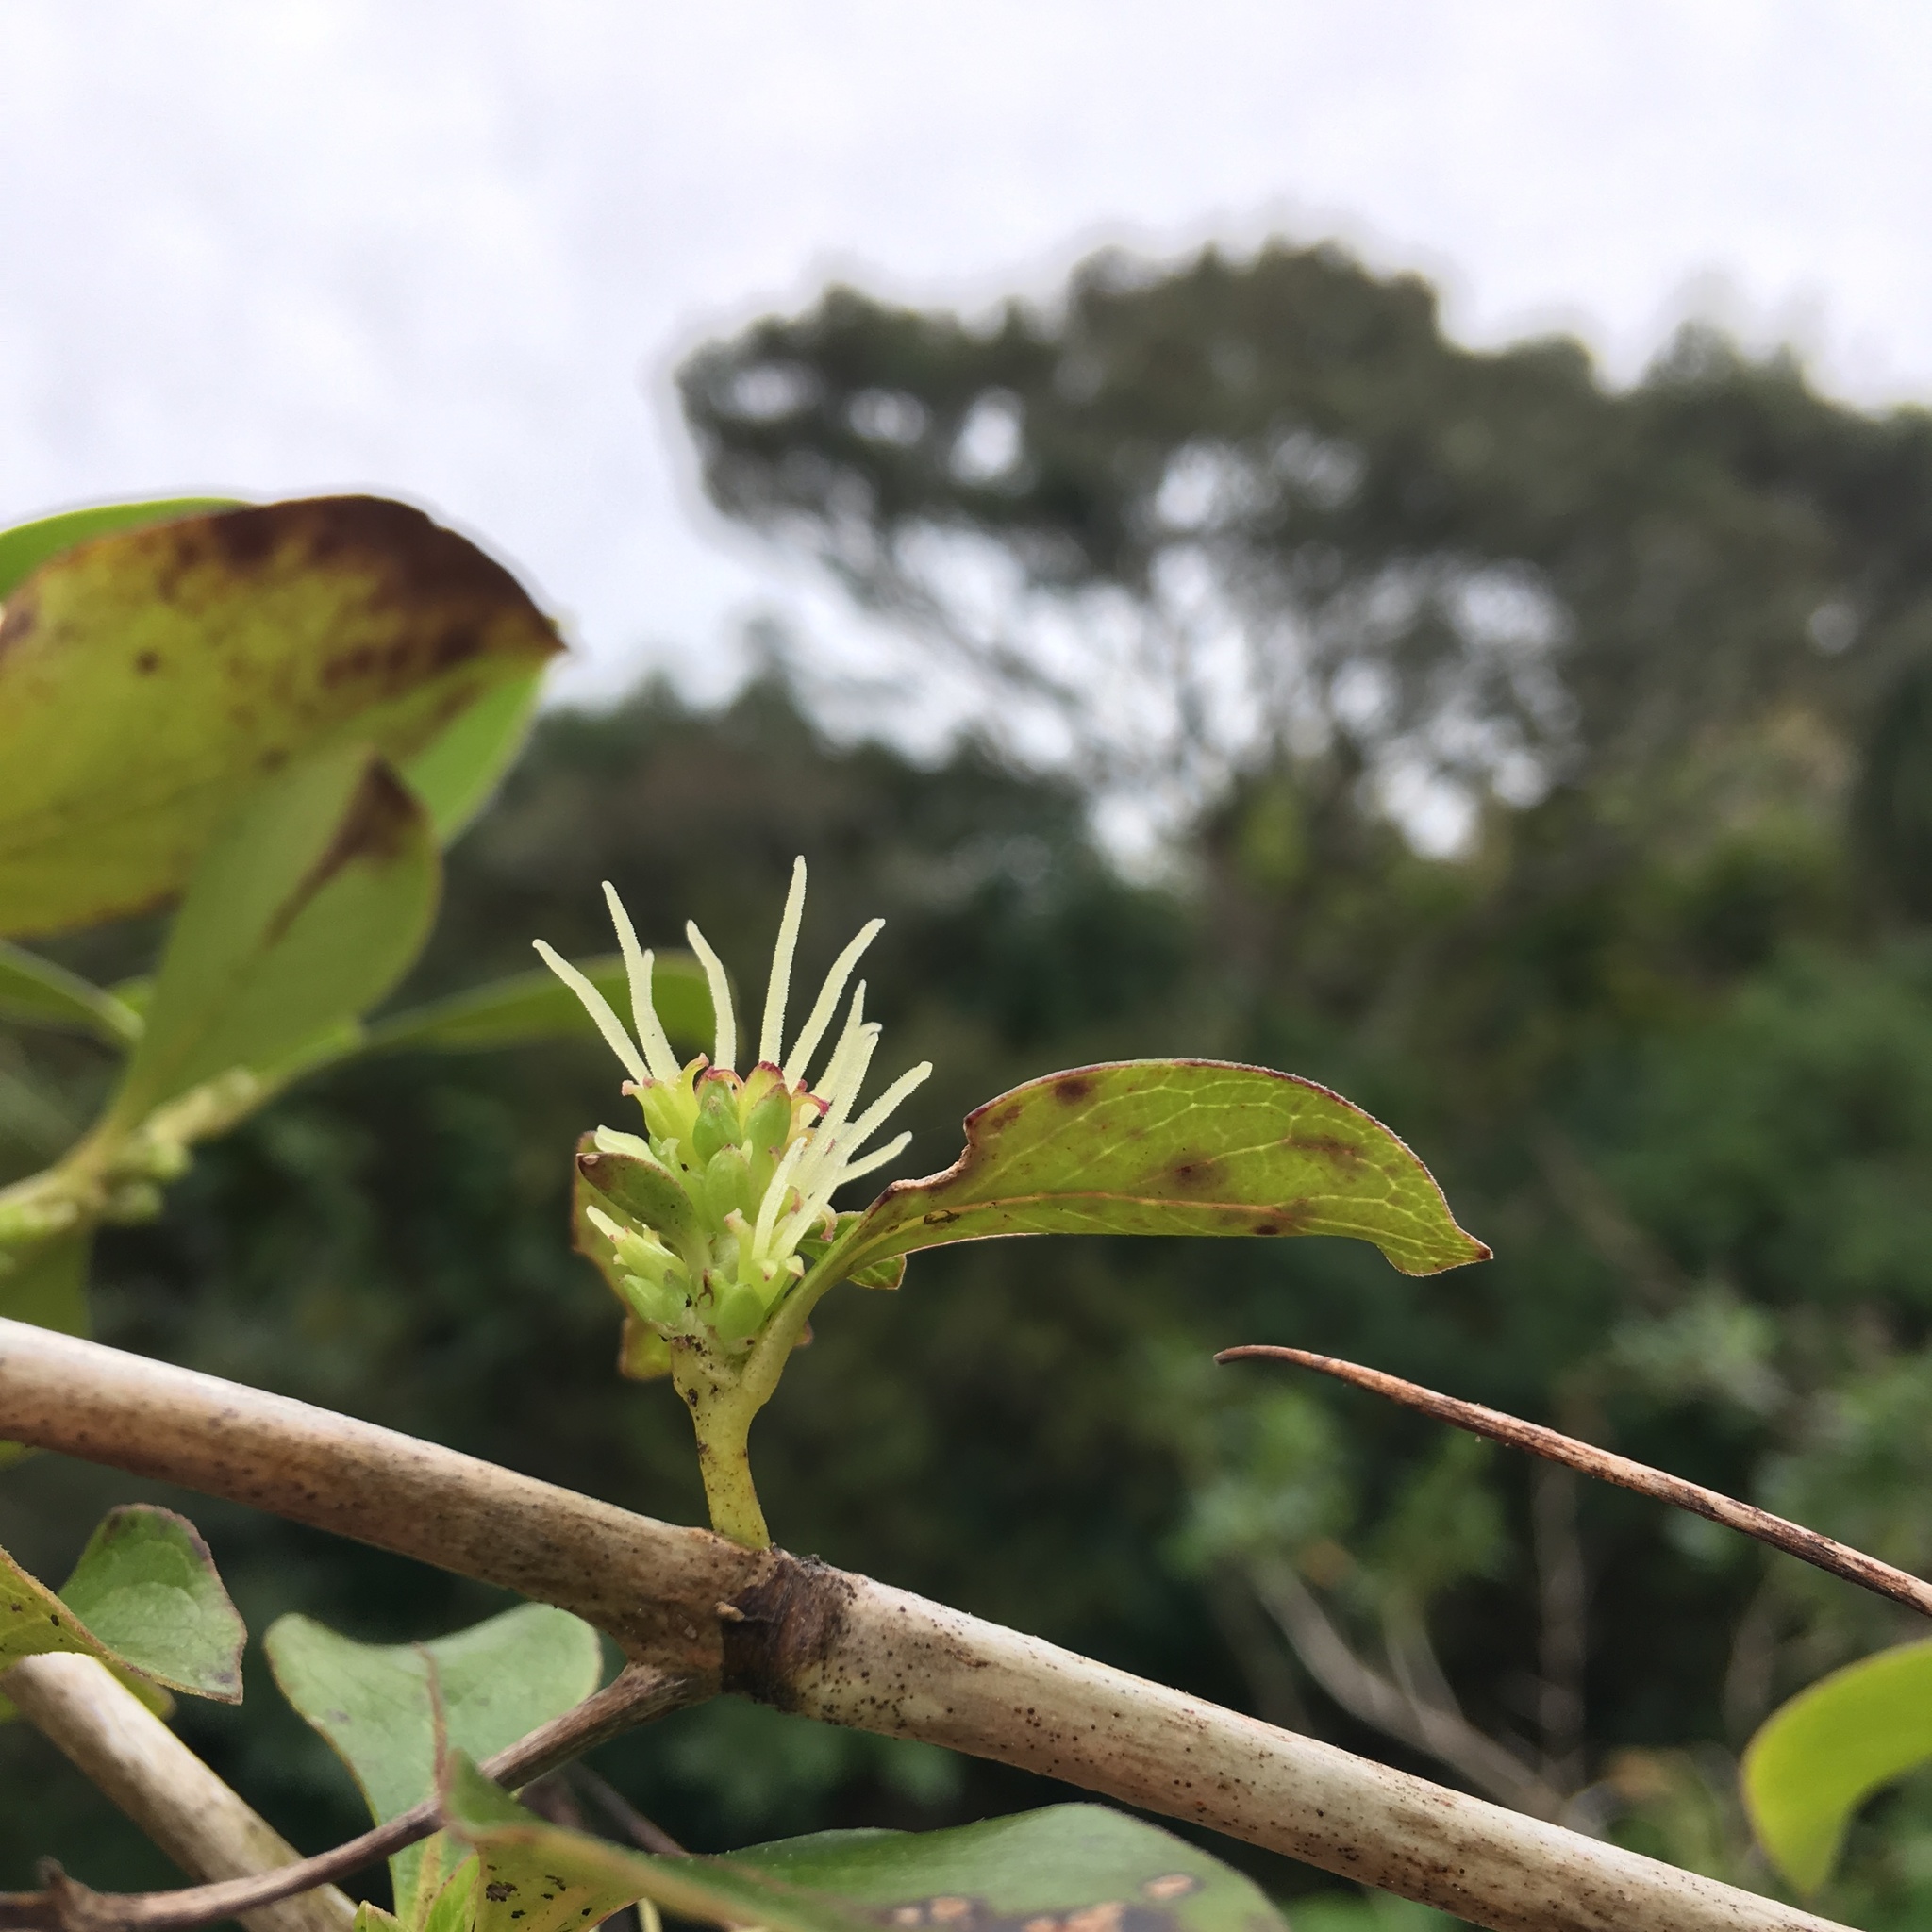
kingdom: Plantae
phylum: Tracheophyta
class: Magnoliopsida
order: Gentianales
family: Rubiaceae
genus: Coprosma
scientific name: Coprosma robusta
